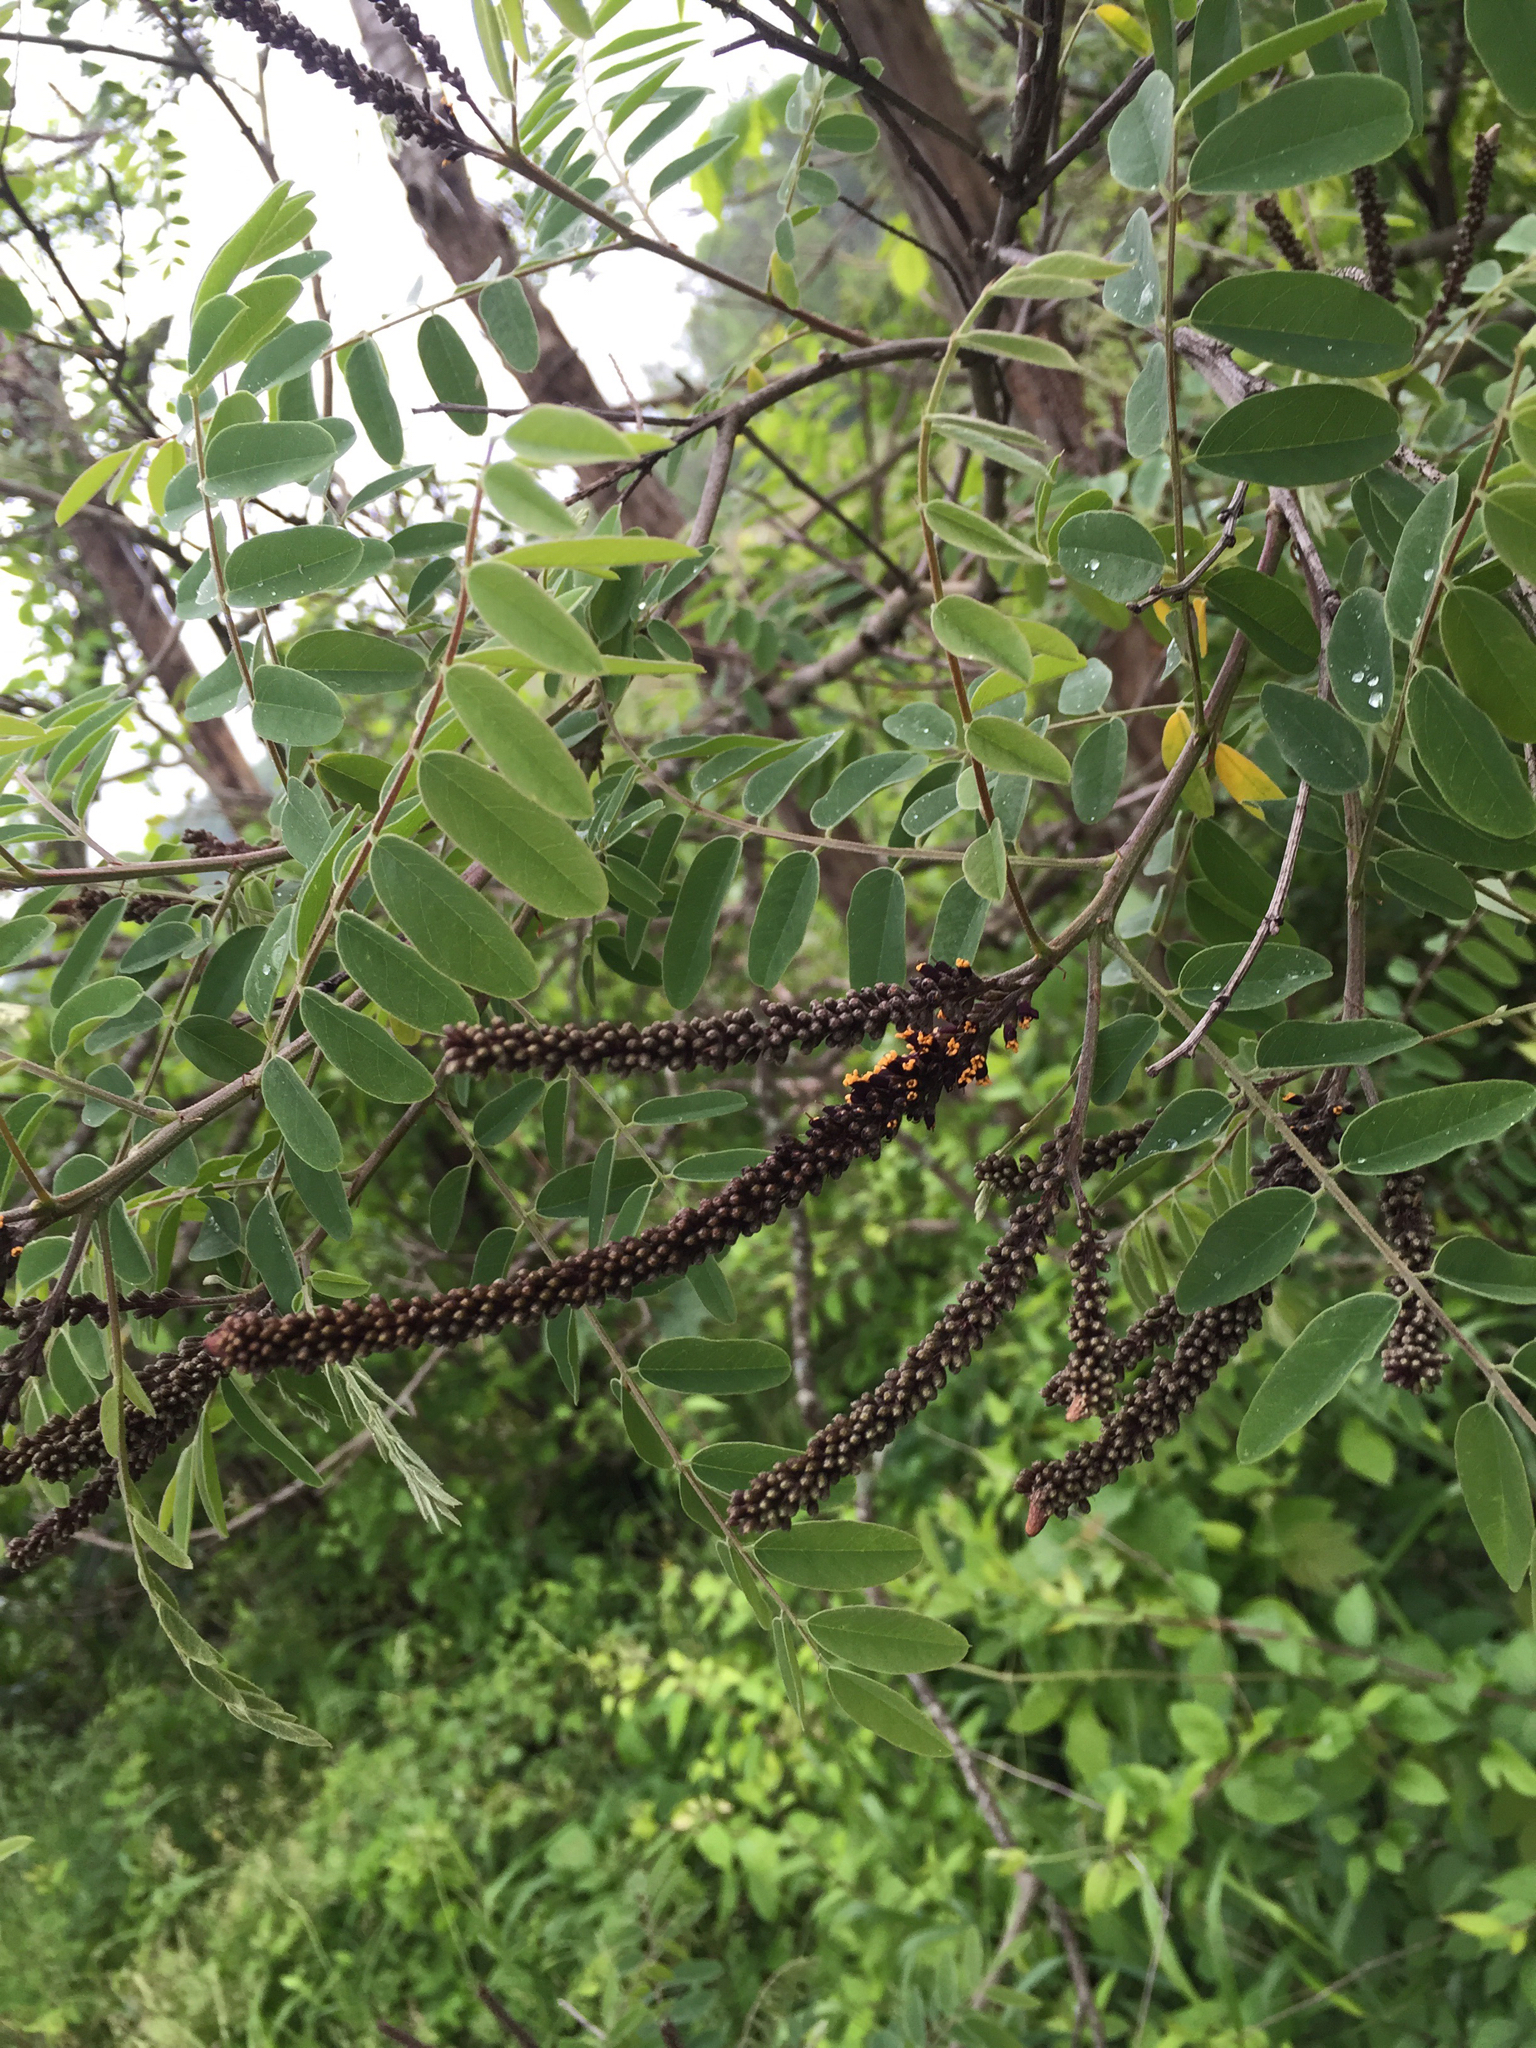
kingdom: Plantae
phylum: Tracheophyta
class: Magnoliopsida
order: Fabales
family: Fabaceae
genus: Amorpha
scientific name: Amorpha fruticosa
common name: False indigo
